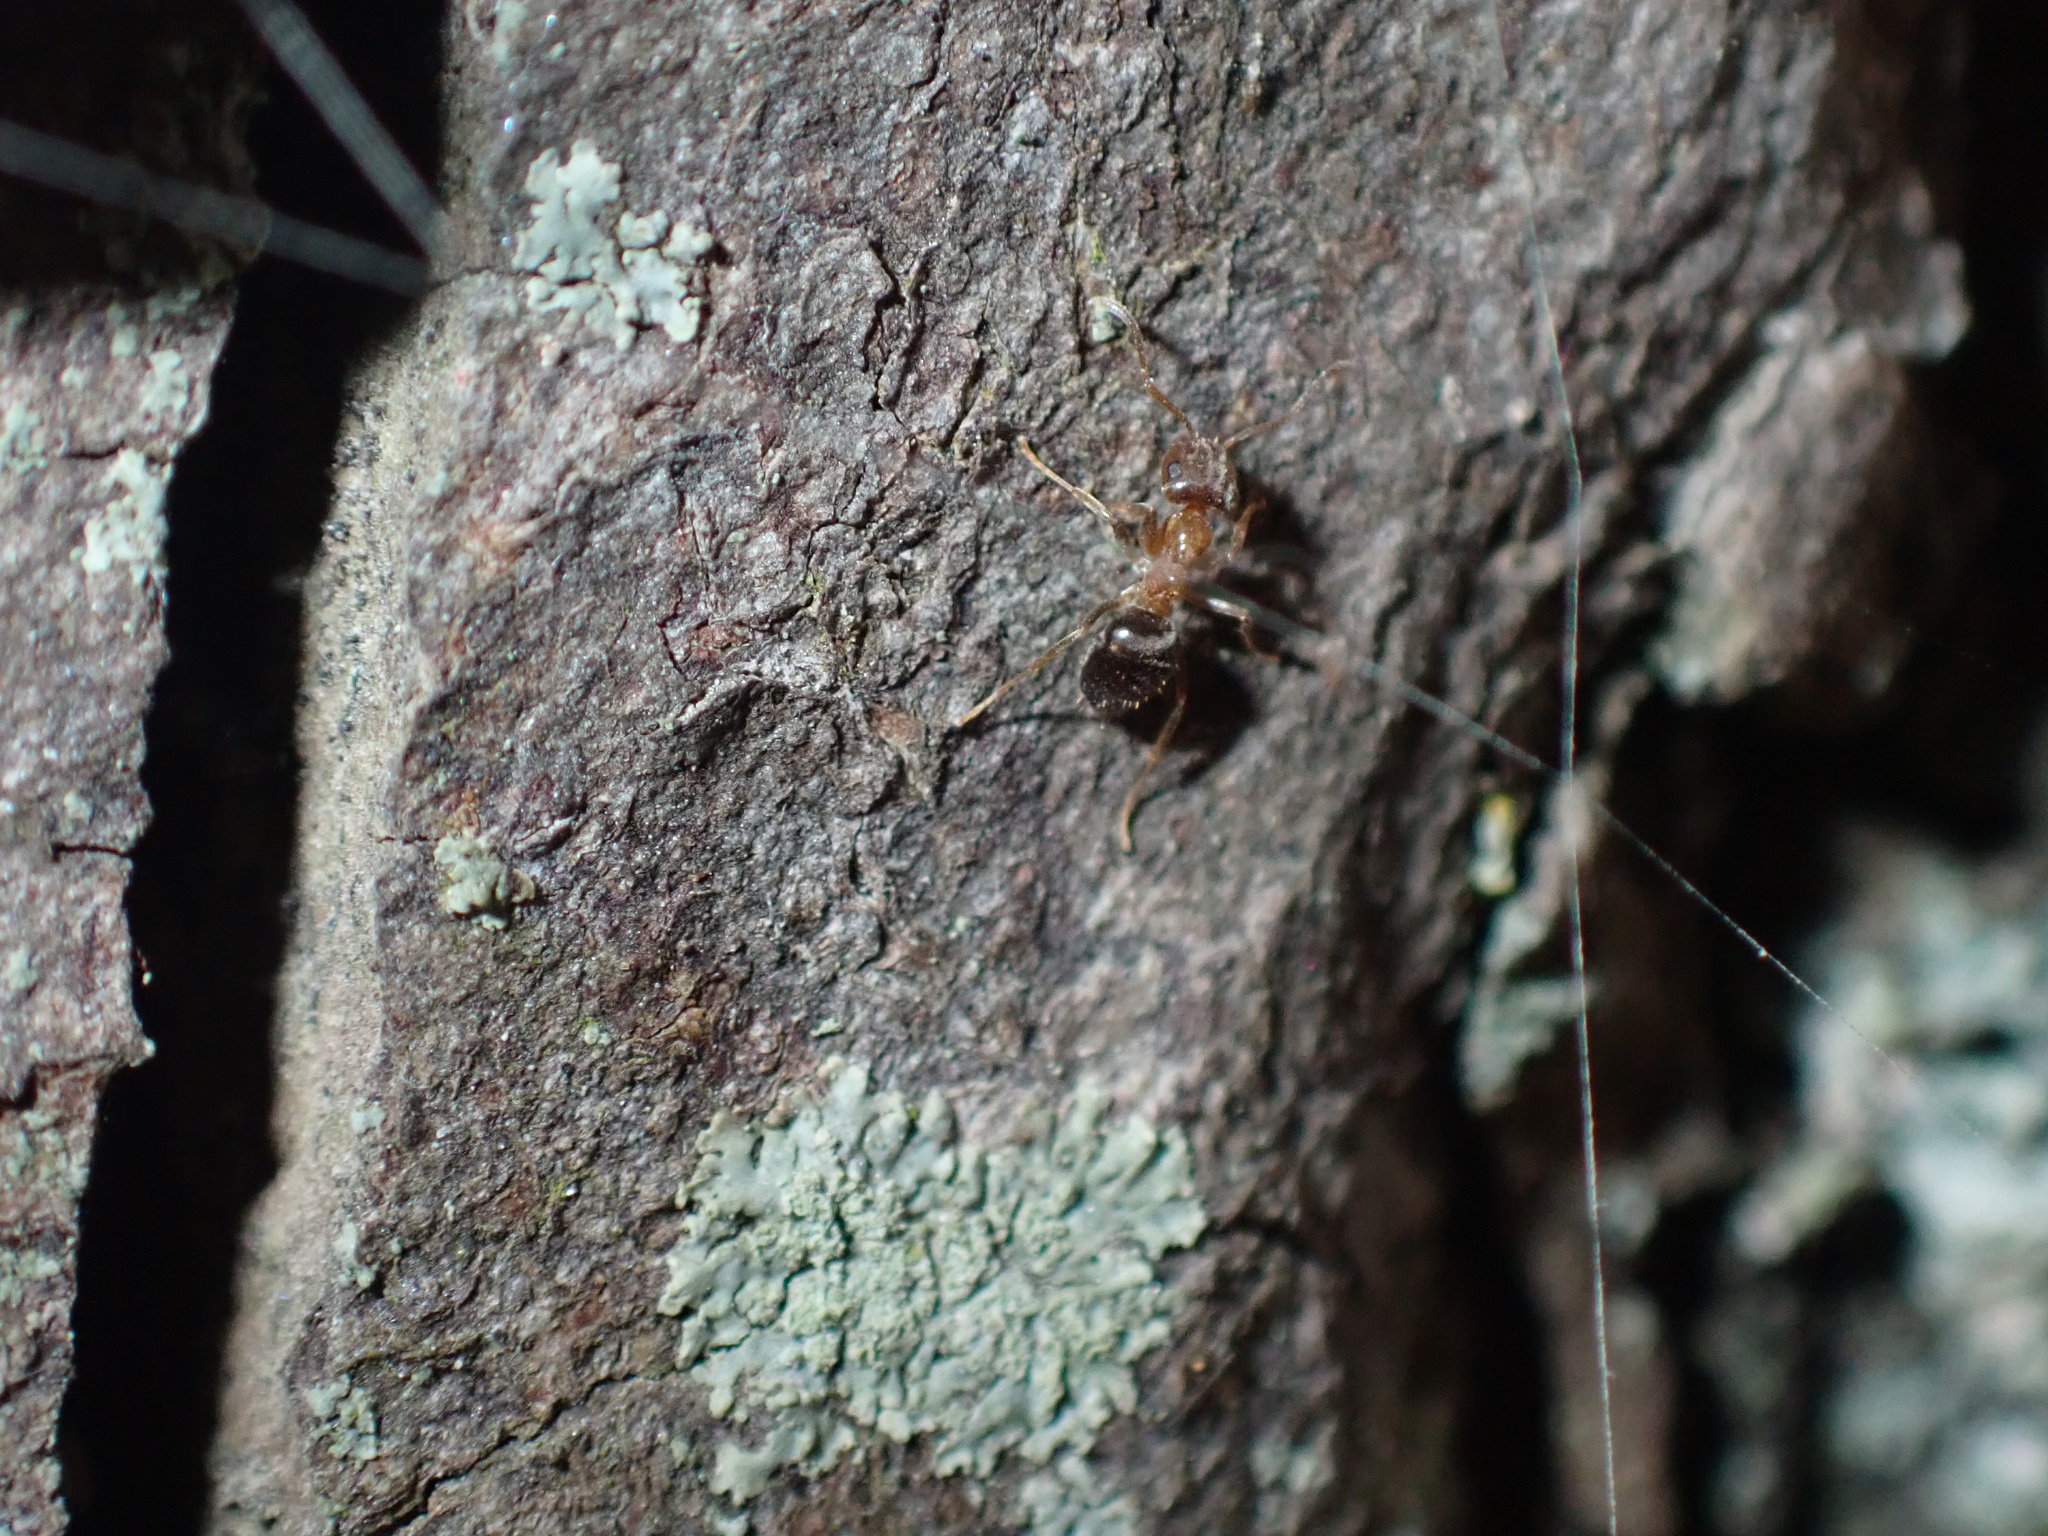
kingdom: Animalia
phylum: Arthropoda
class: Insecta
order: Hymenoptera
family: Formicidae
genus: Lasius
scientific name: Lasius brunneus
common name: Brown ant
